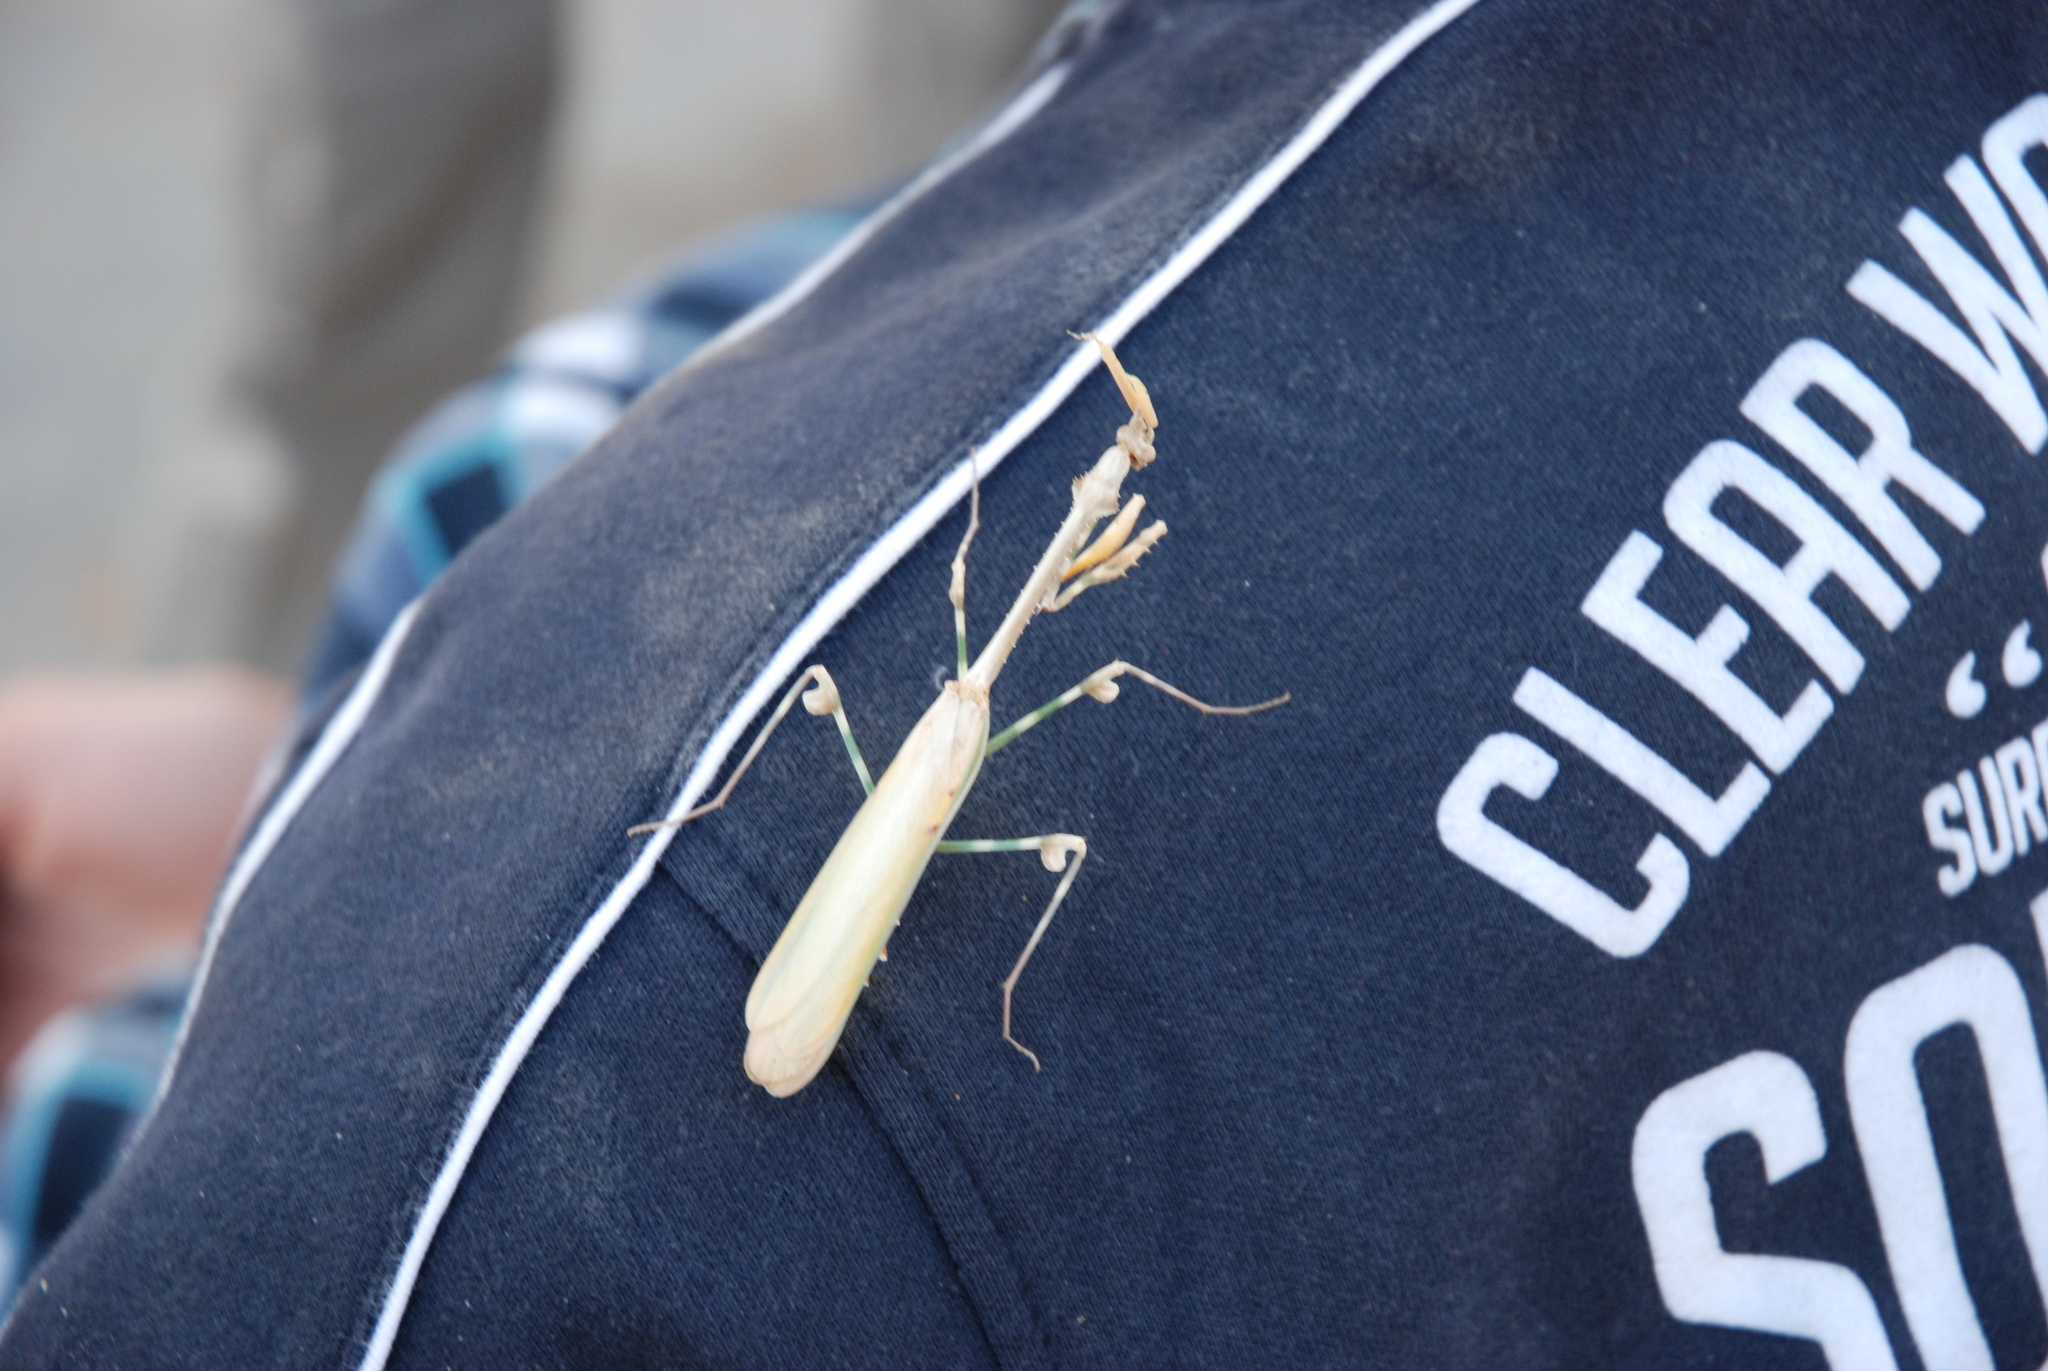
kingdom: Animalia
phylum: Arthropoda
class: Insecta
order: Mantodea
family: Empusidae
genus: Empusa
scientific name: Empusa binotata
